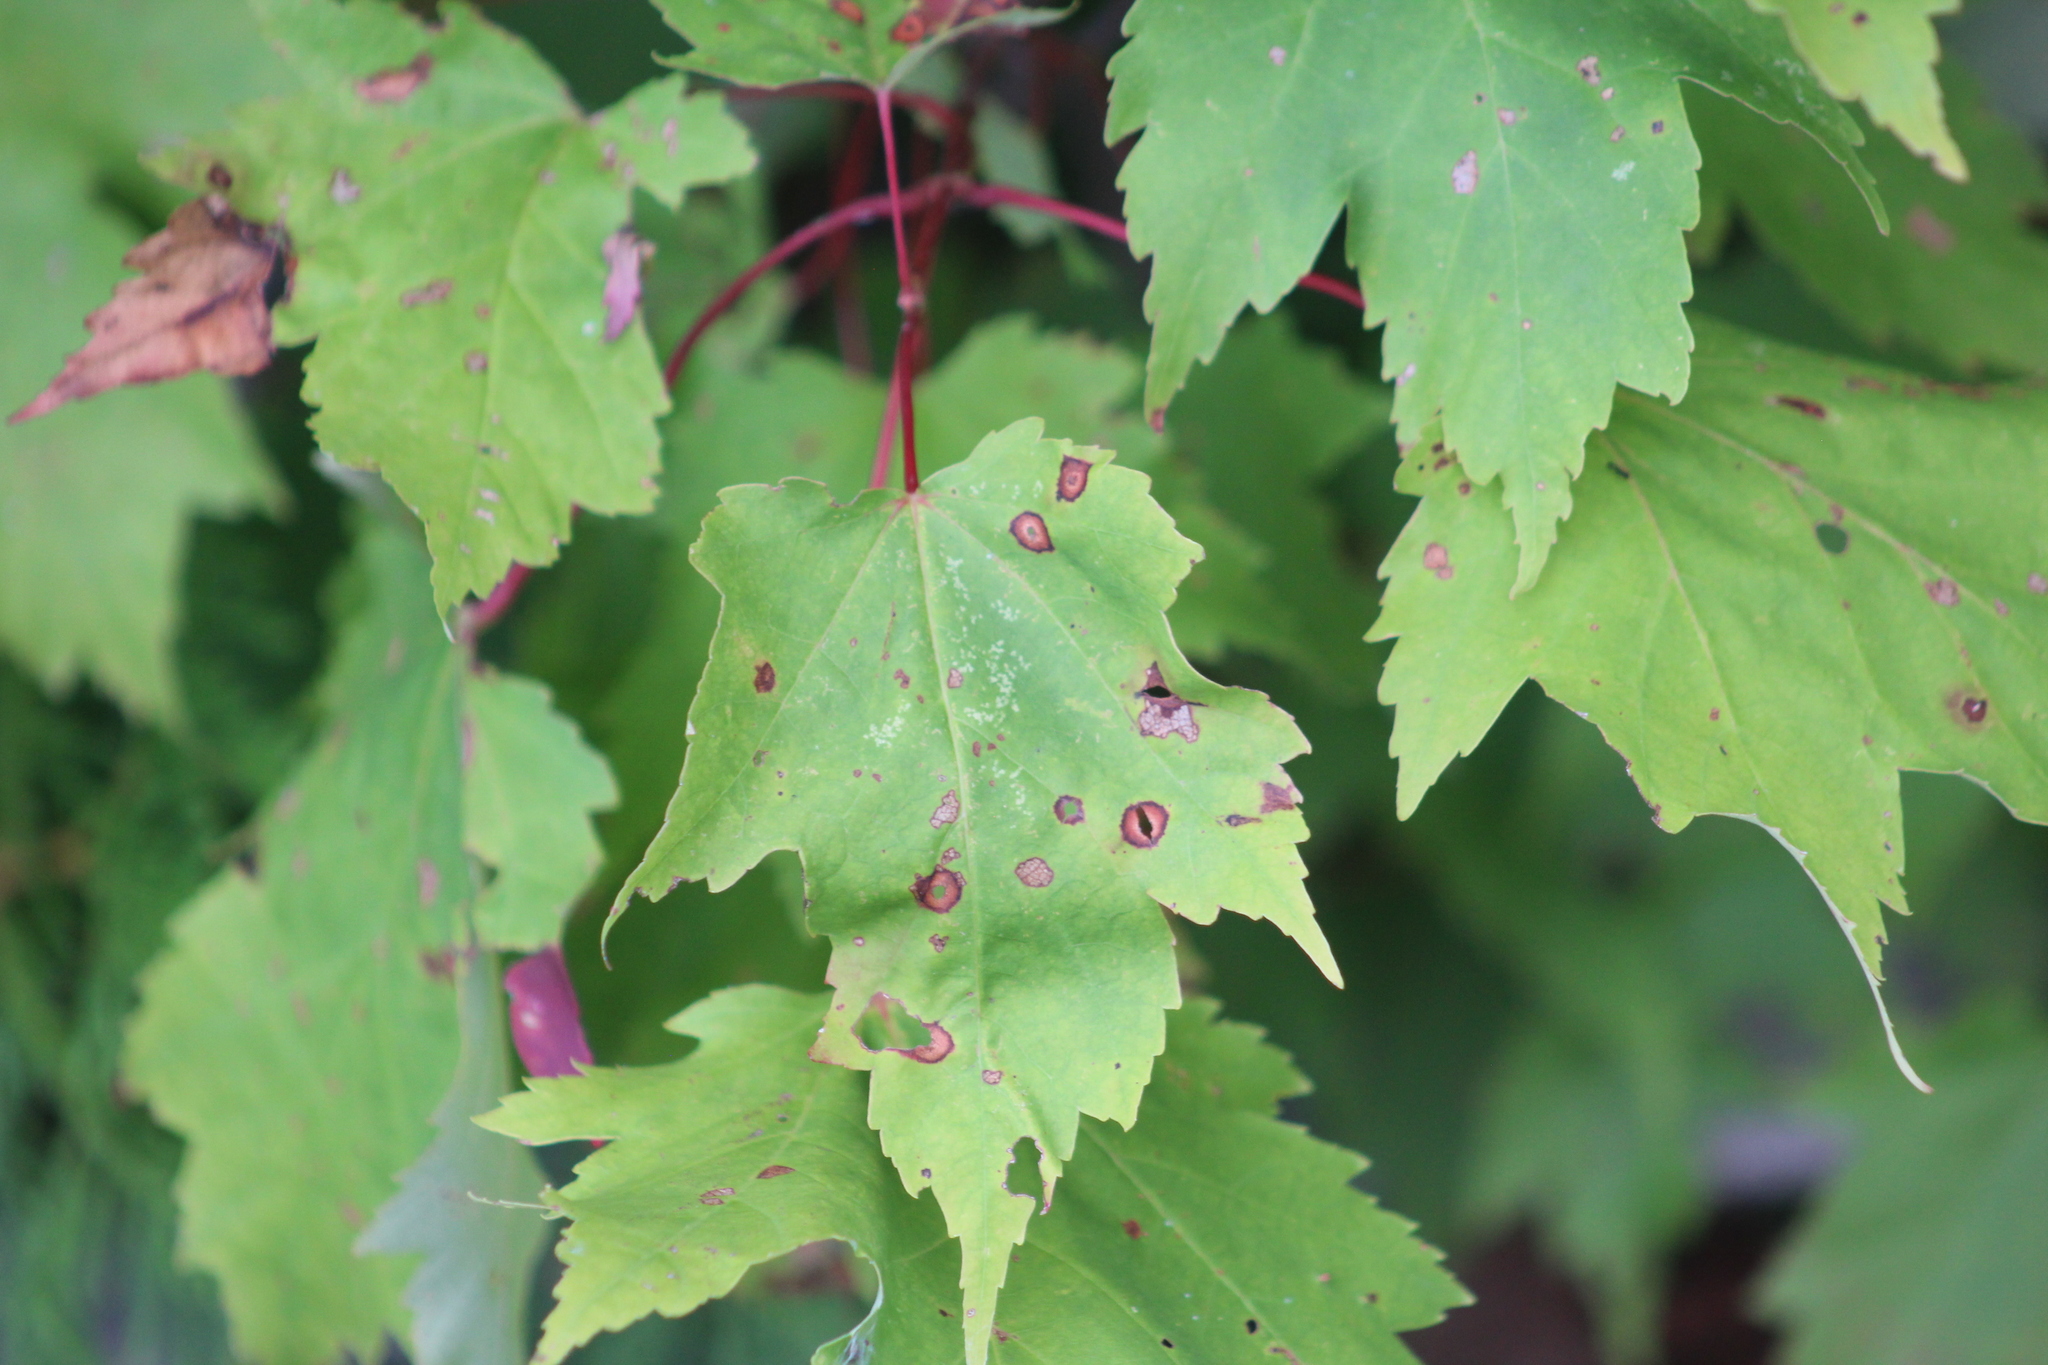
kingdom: Plantae
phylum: Tracheophyta
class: Magnoliopsida
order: Sapindales
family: Sapindaceae
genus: Acer
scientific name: Acer rubrum
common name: Red maple
